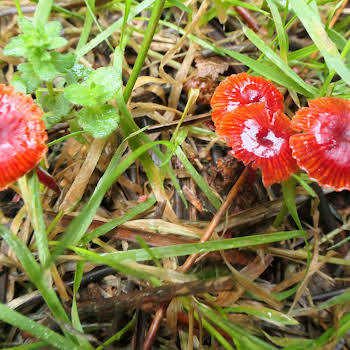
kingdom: Fungi
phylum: Basidiomycota
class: Agaricomycetes
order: Agaricales
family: Mycenaceae
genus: Cruentomycena
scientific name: Cruentomycena viscidocruenta
